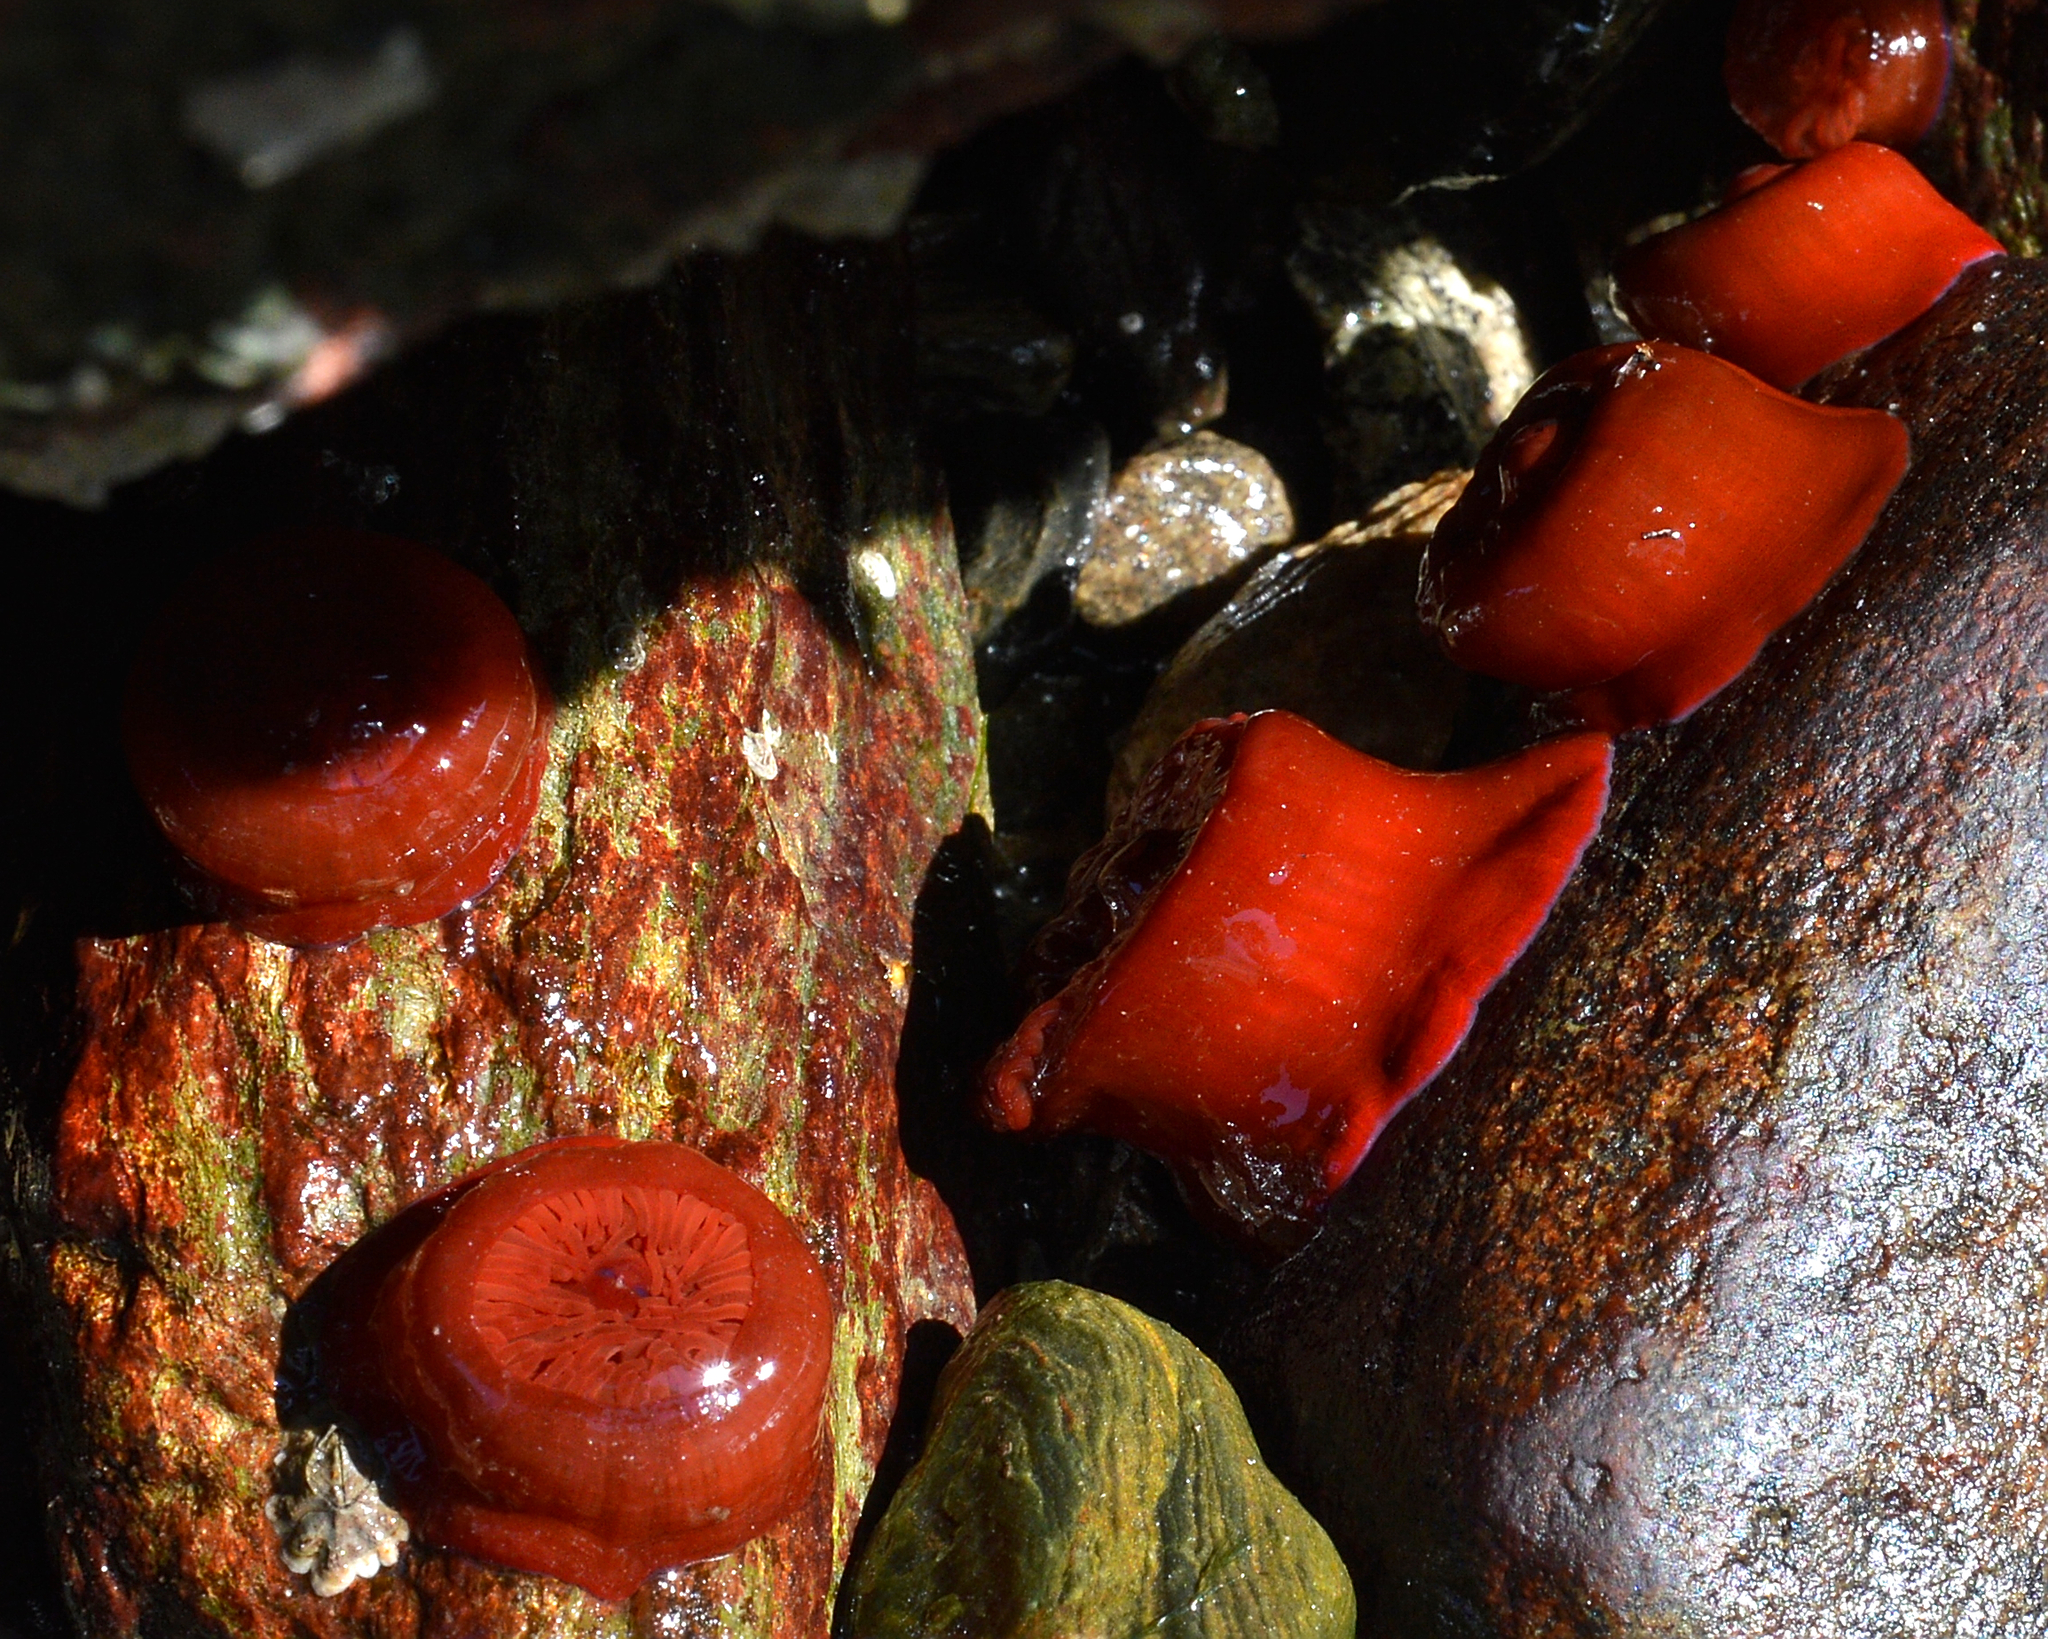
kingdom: Animalia
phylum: Cnidaria
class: Anthozoa
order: Actiniaria
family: Actiniidae
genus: Actinia
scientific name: Actinia equina
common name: Beadlet anemone
